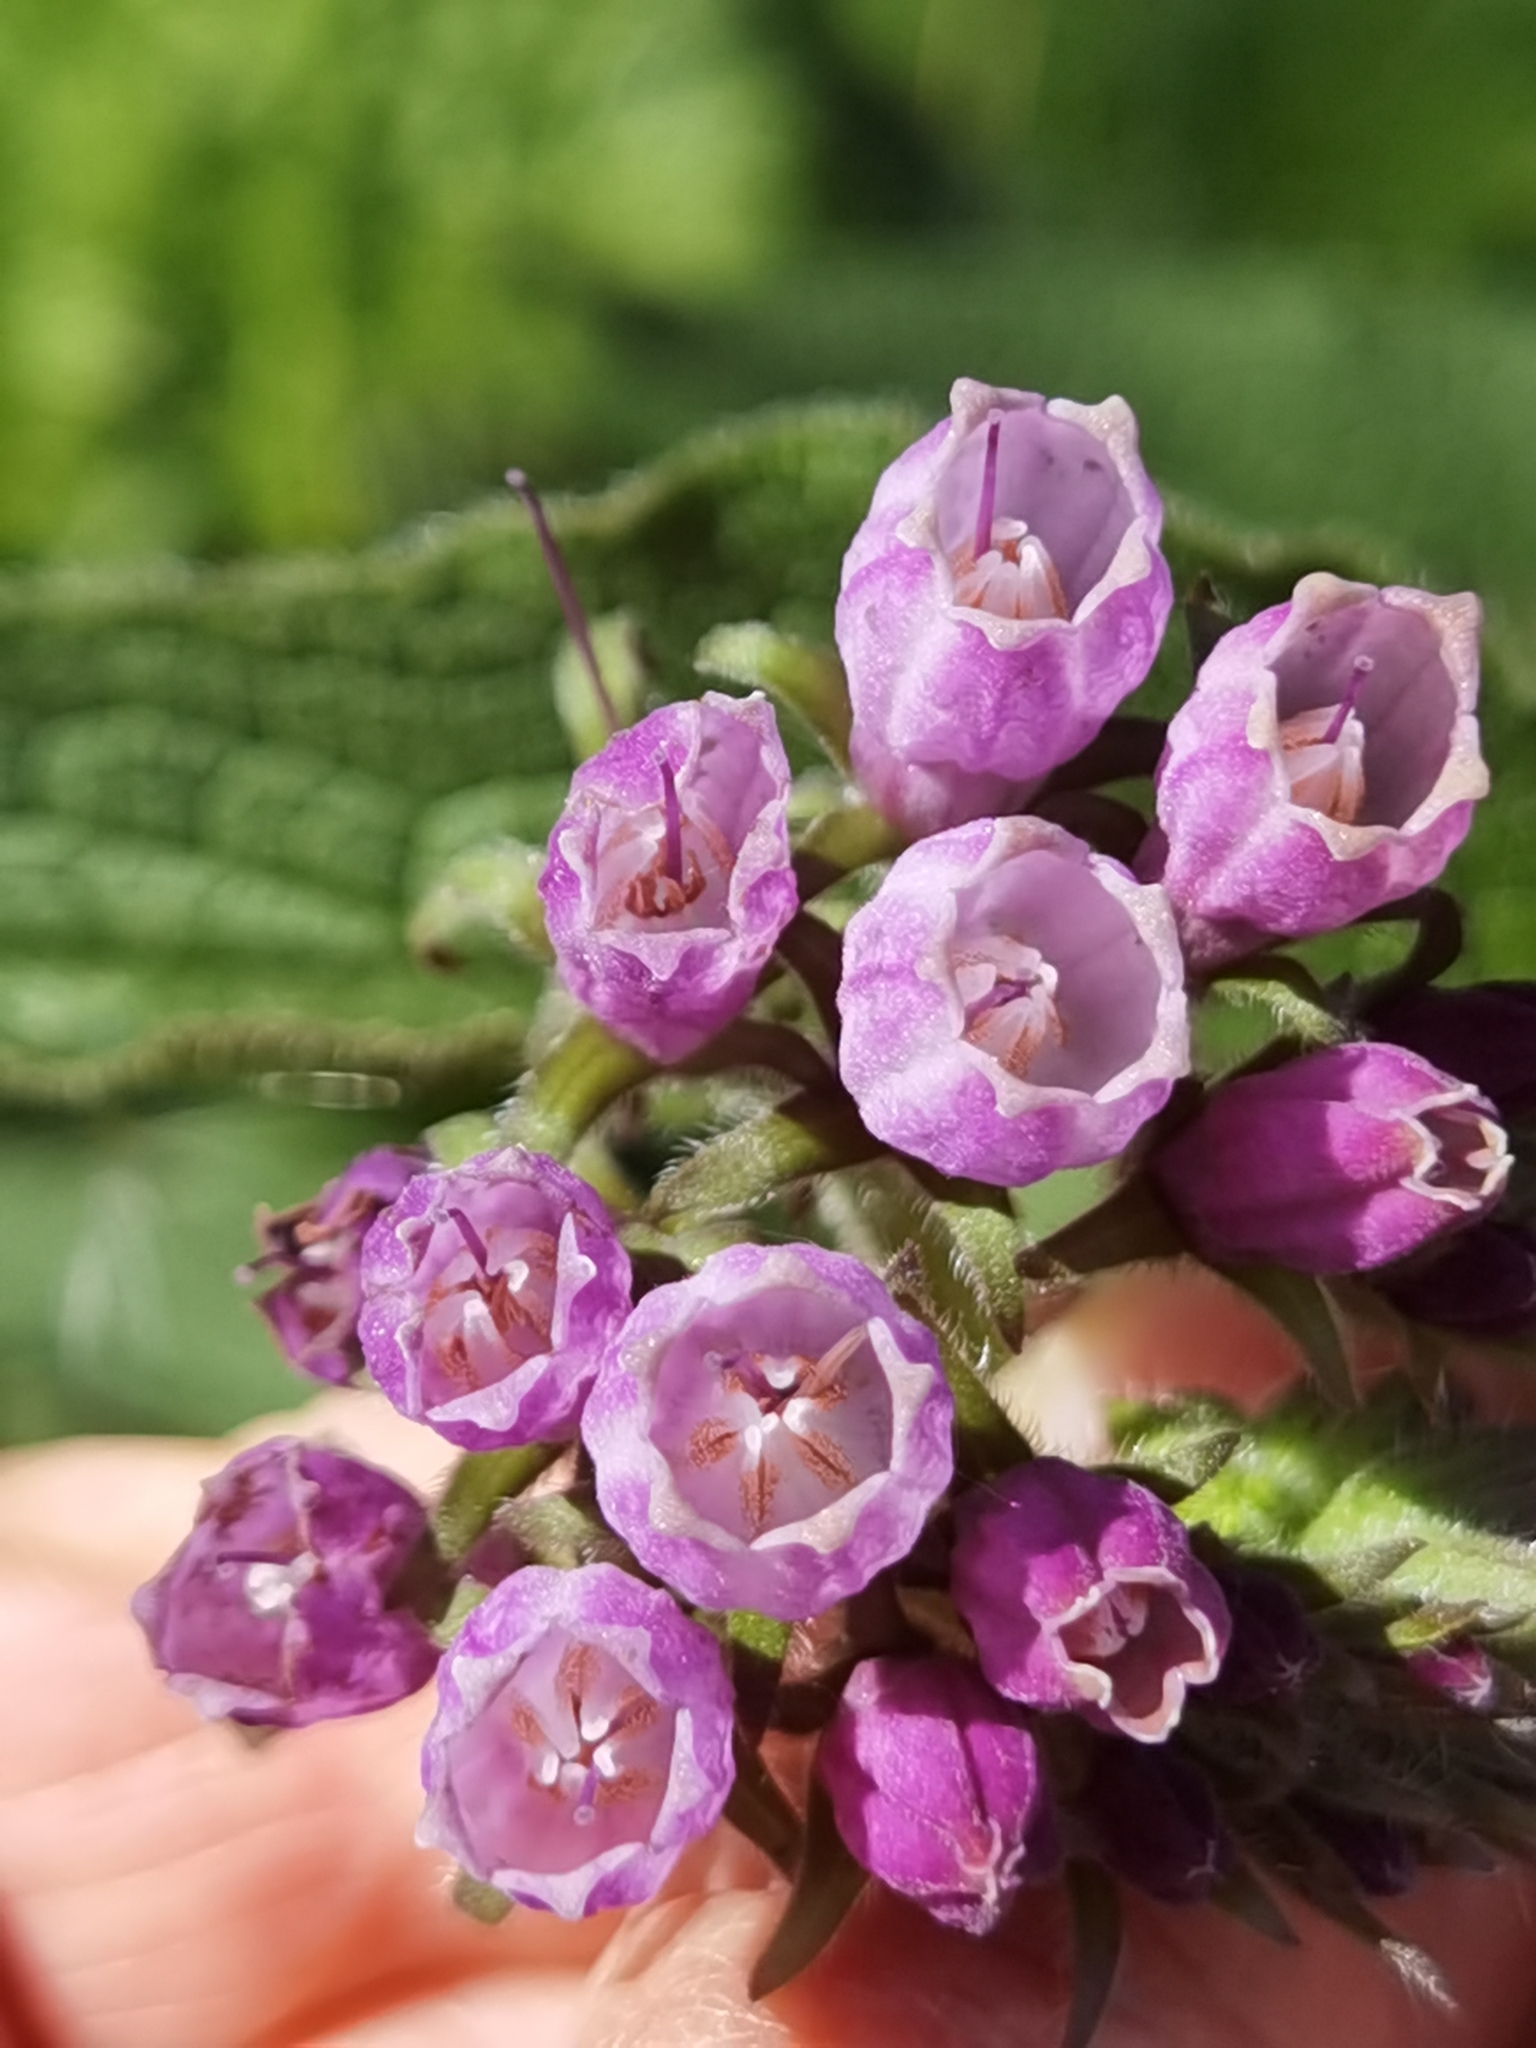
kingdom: Plantae
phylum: Tracheophyta
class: Magnoliopsida
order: Boraginales
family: Boraginaceae
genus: Symphytum
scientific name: Symphytum officinale
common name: Common comfrey
